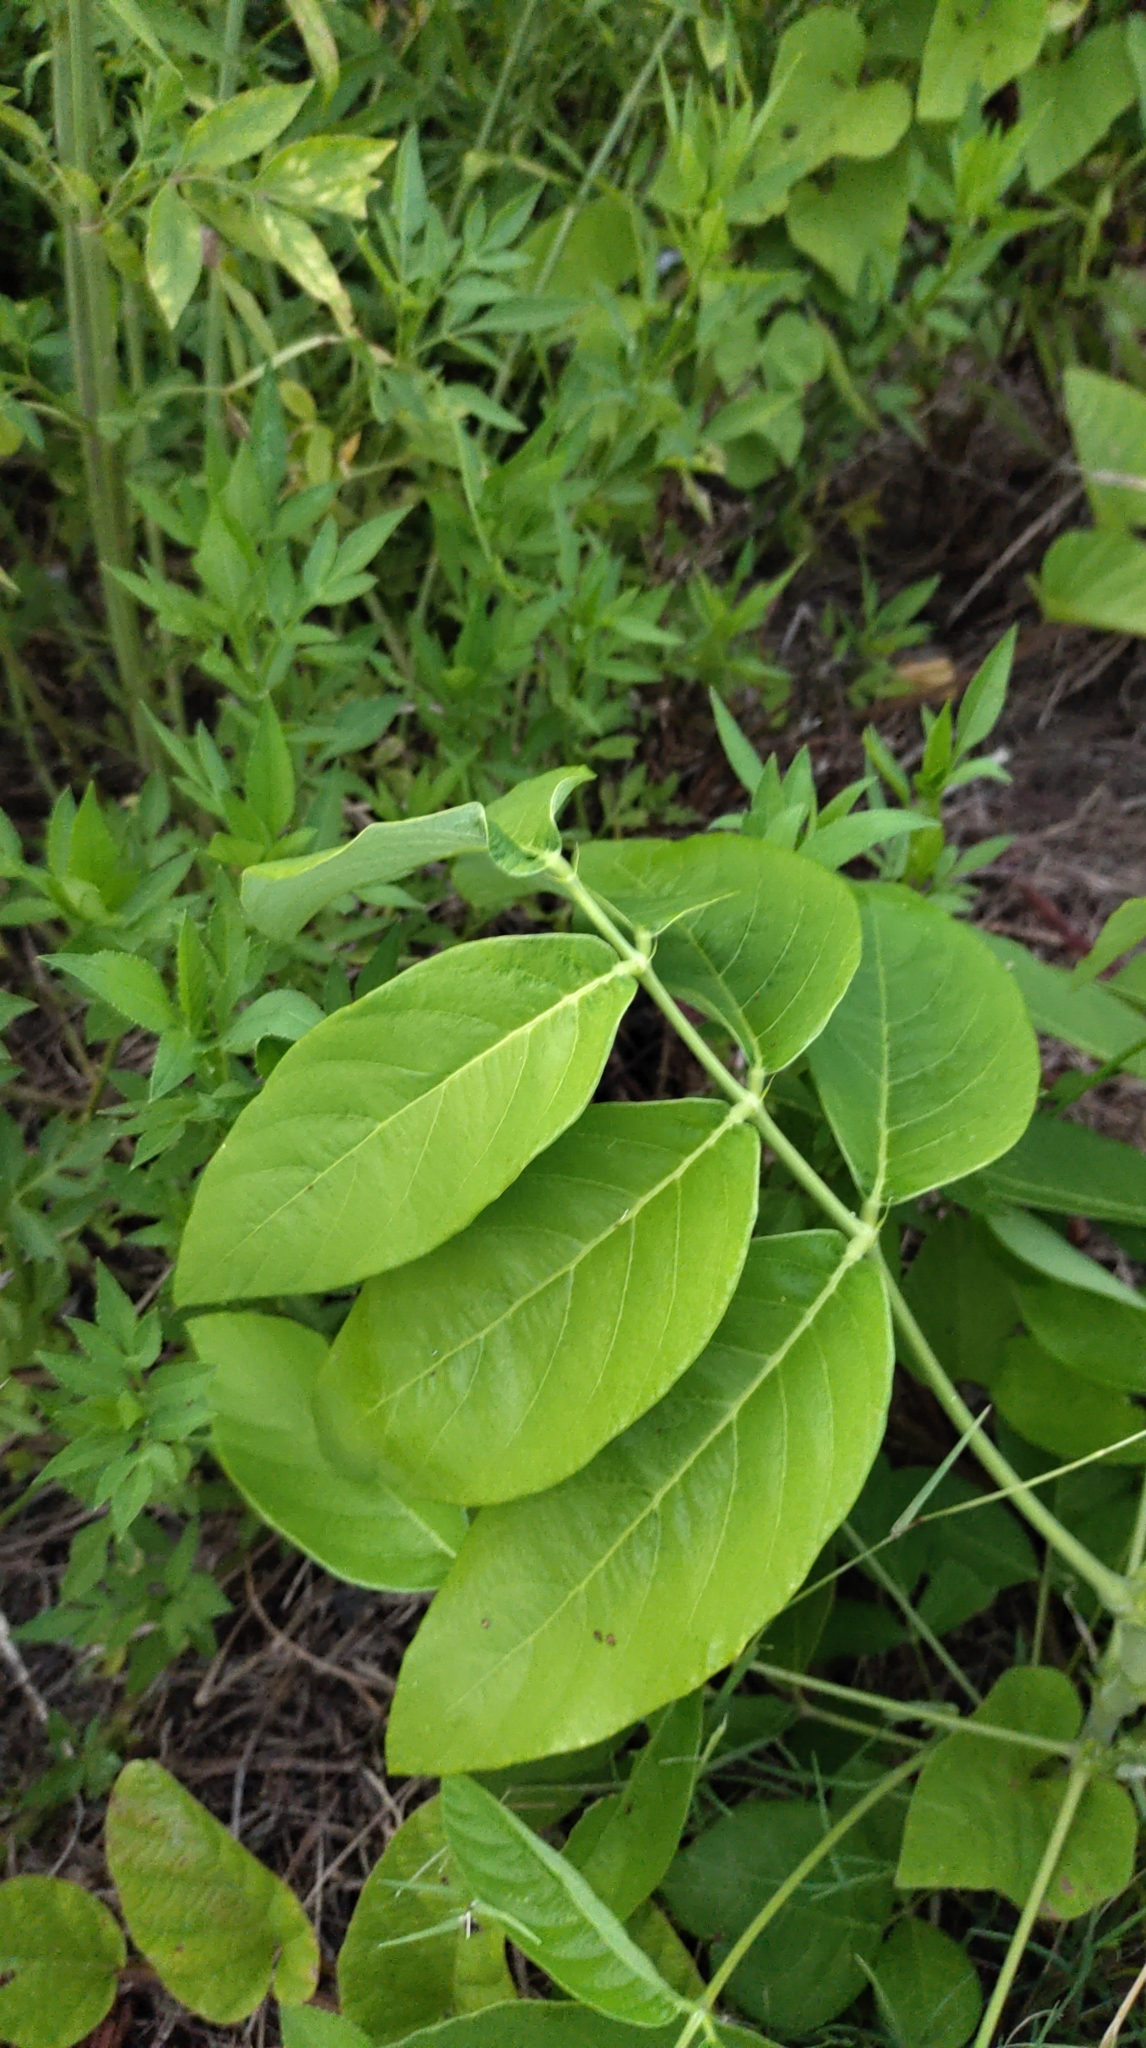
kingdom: Plantae
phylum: Tracheophyta
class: Magnoliopsida
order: Fabales
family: Fabaceae
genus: Uraria
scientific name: Uraria crinita
